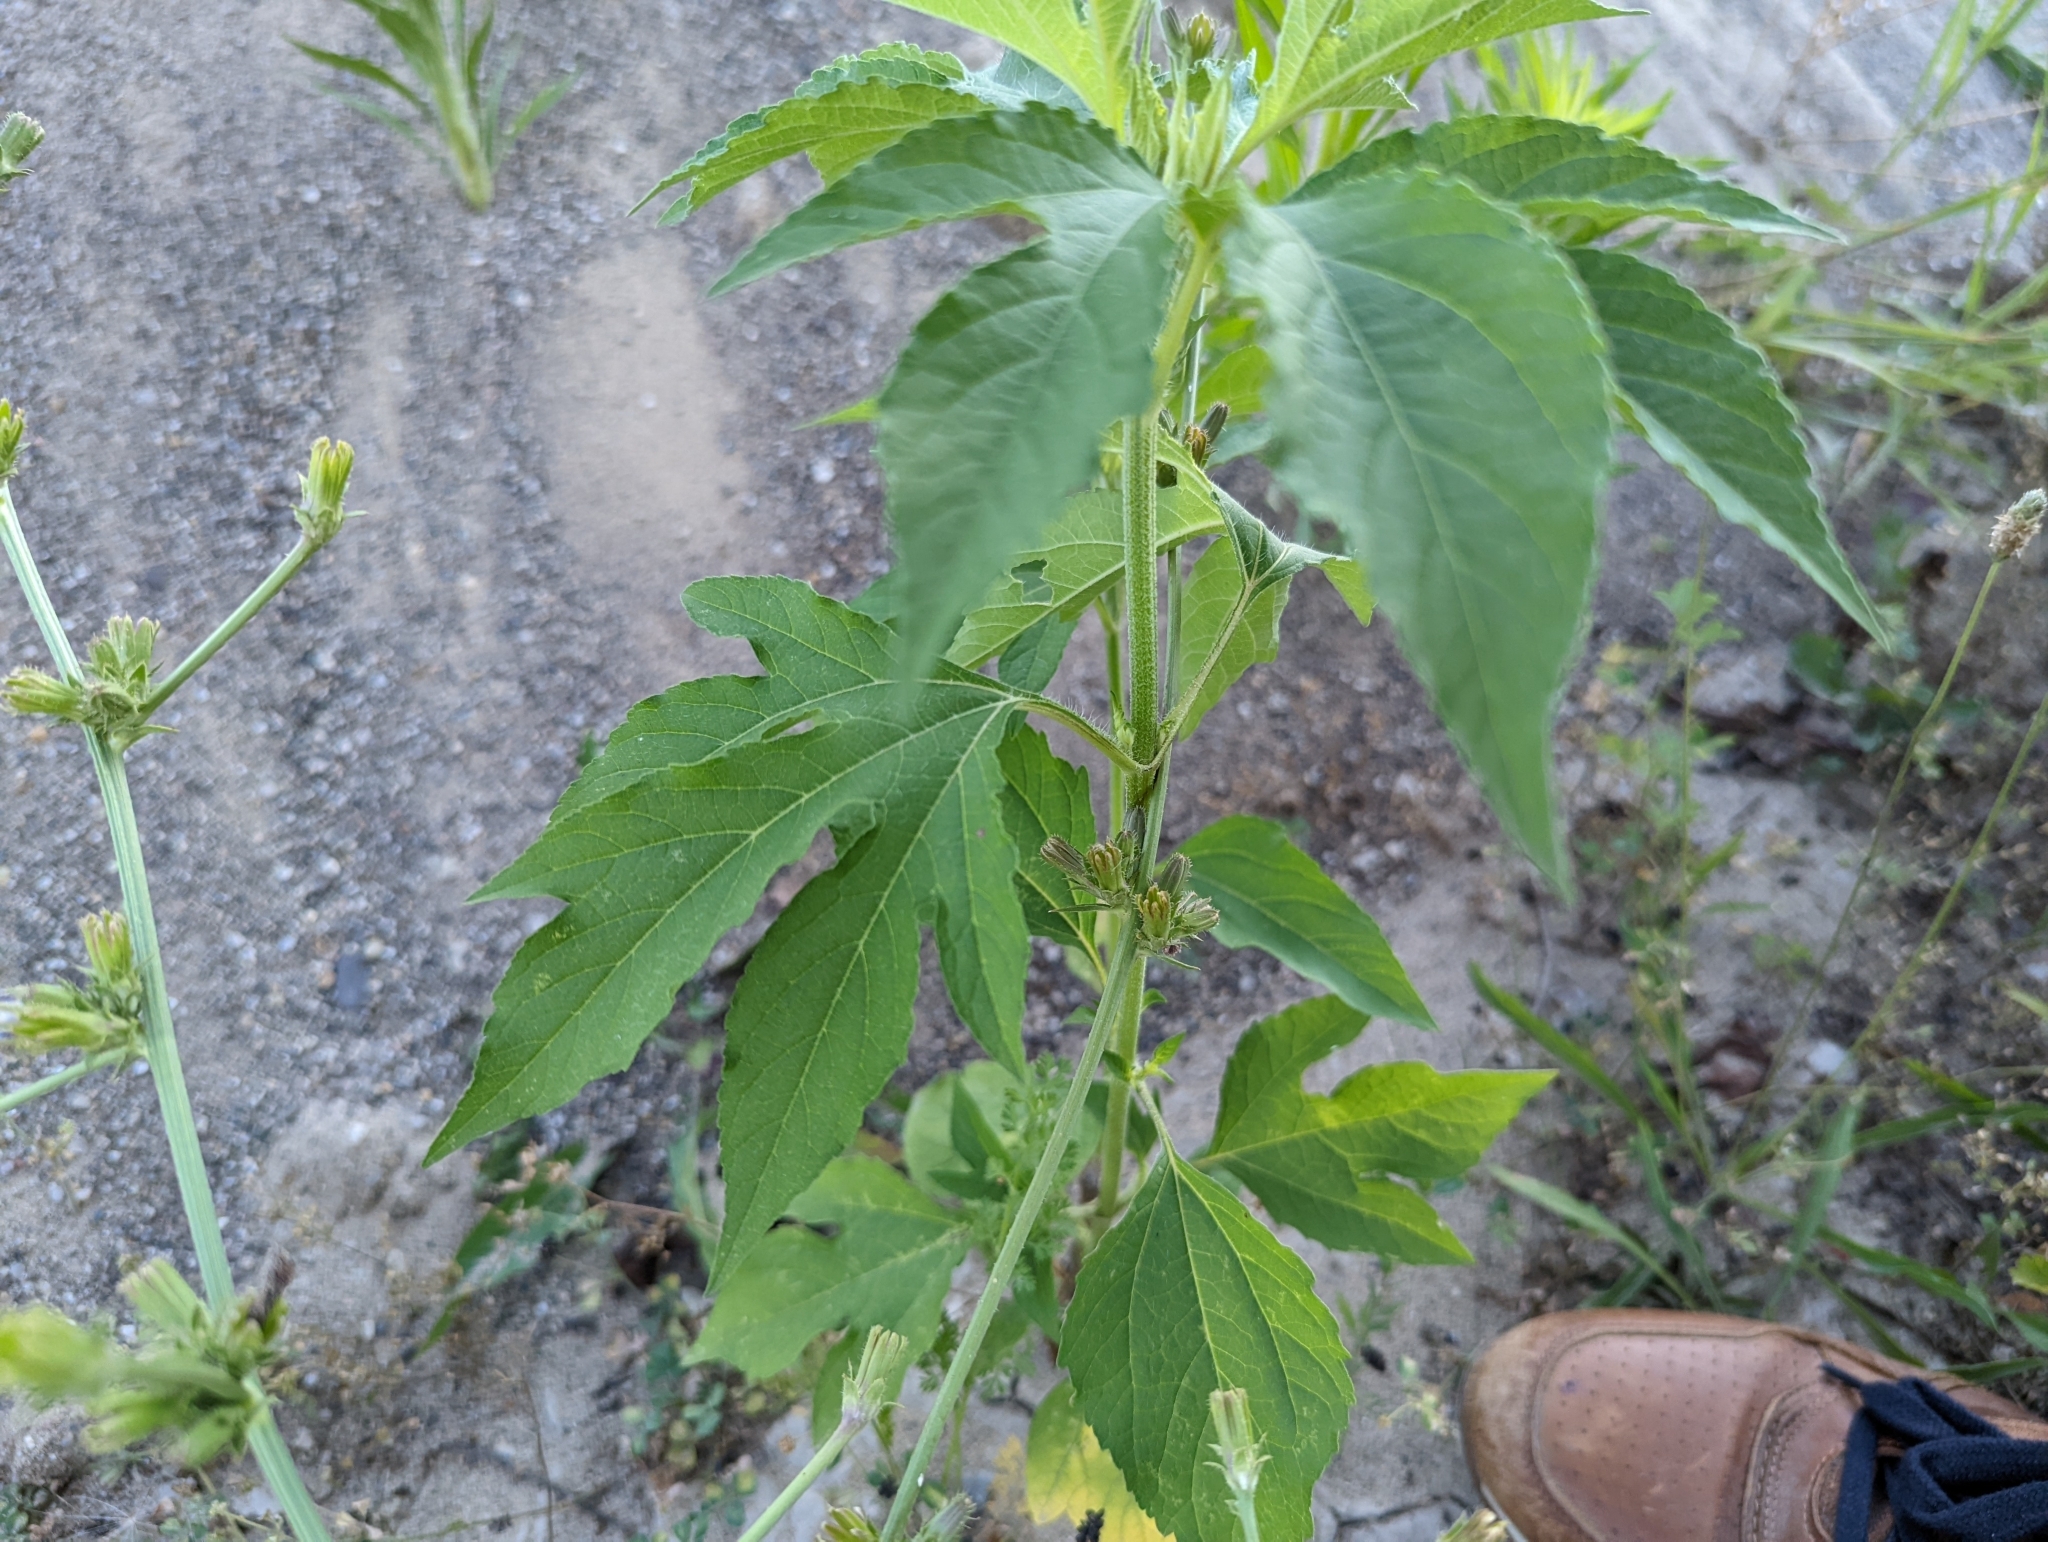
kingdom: Plantae
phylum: Tracheophyta
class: Magnoliopsida
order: Asterales
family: Asteraceae
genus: Ambrosia
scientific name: Ambrosia trifida
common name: Giant ragweed
